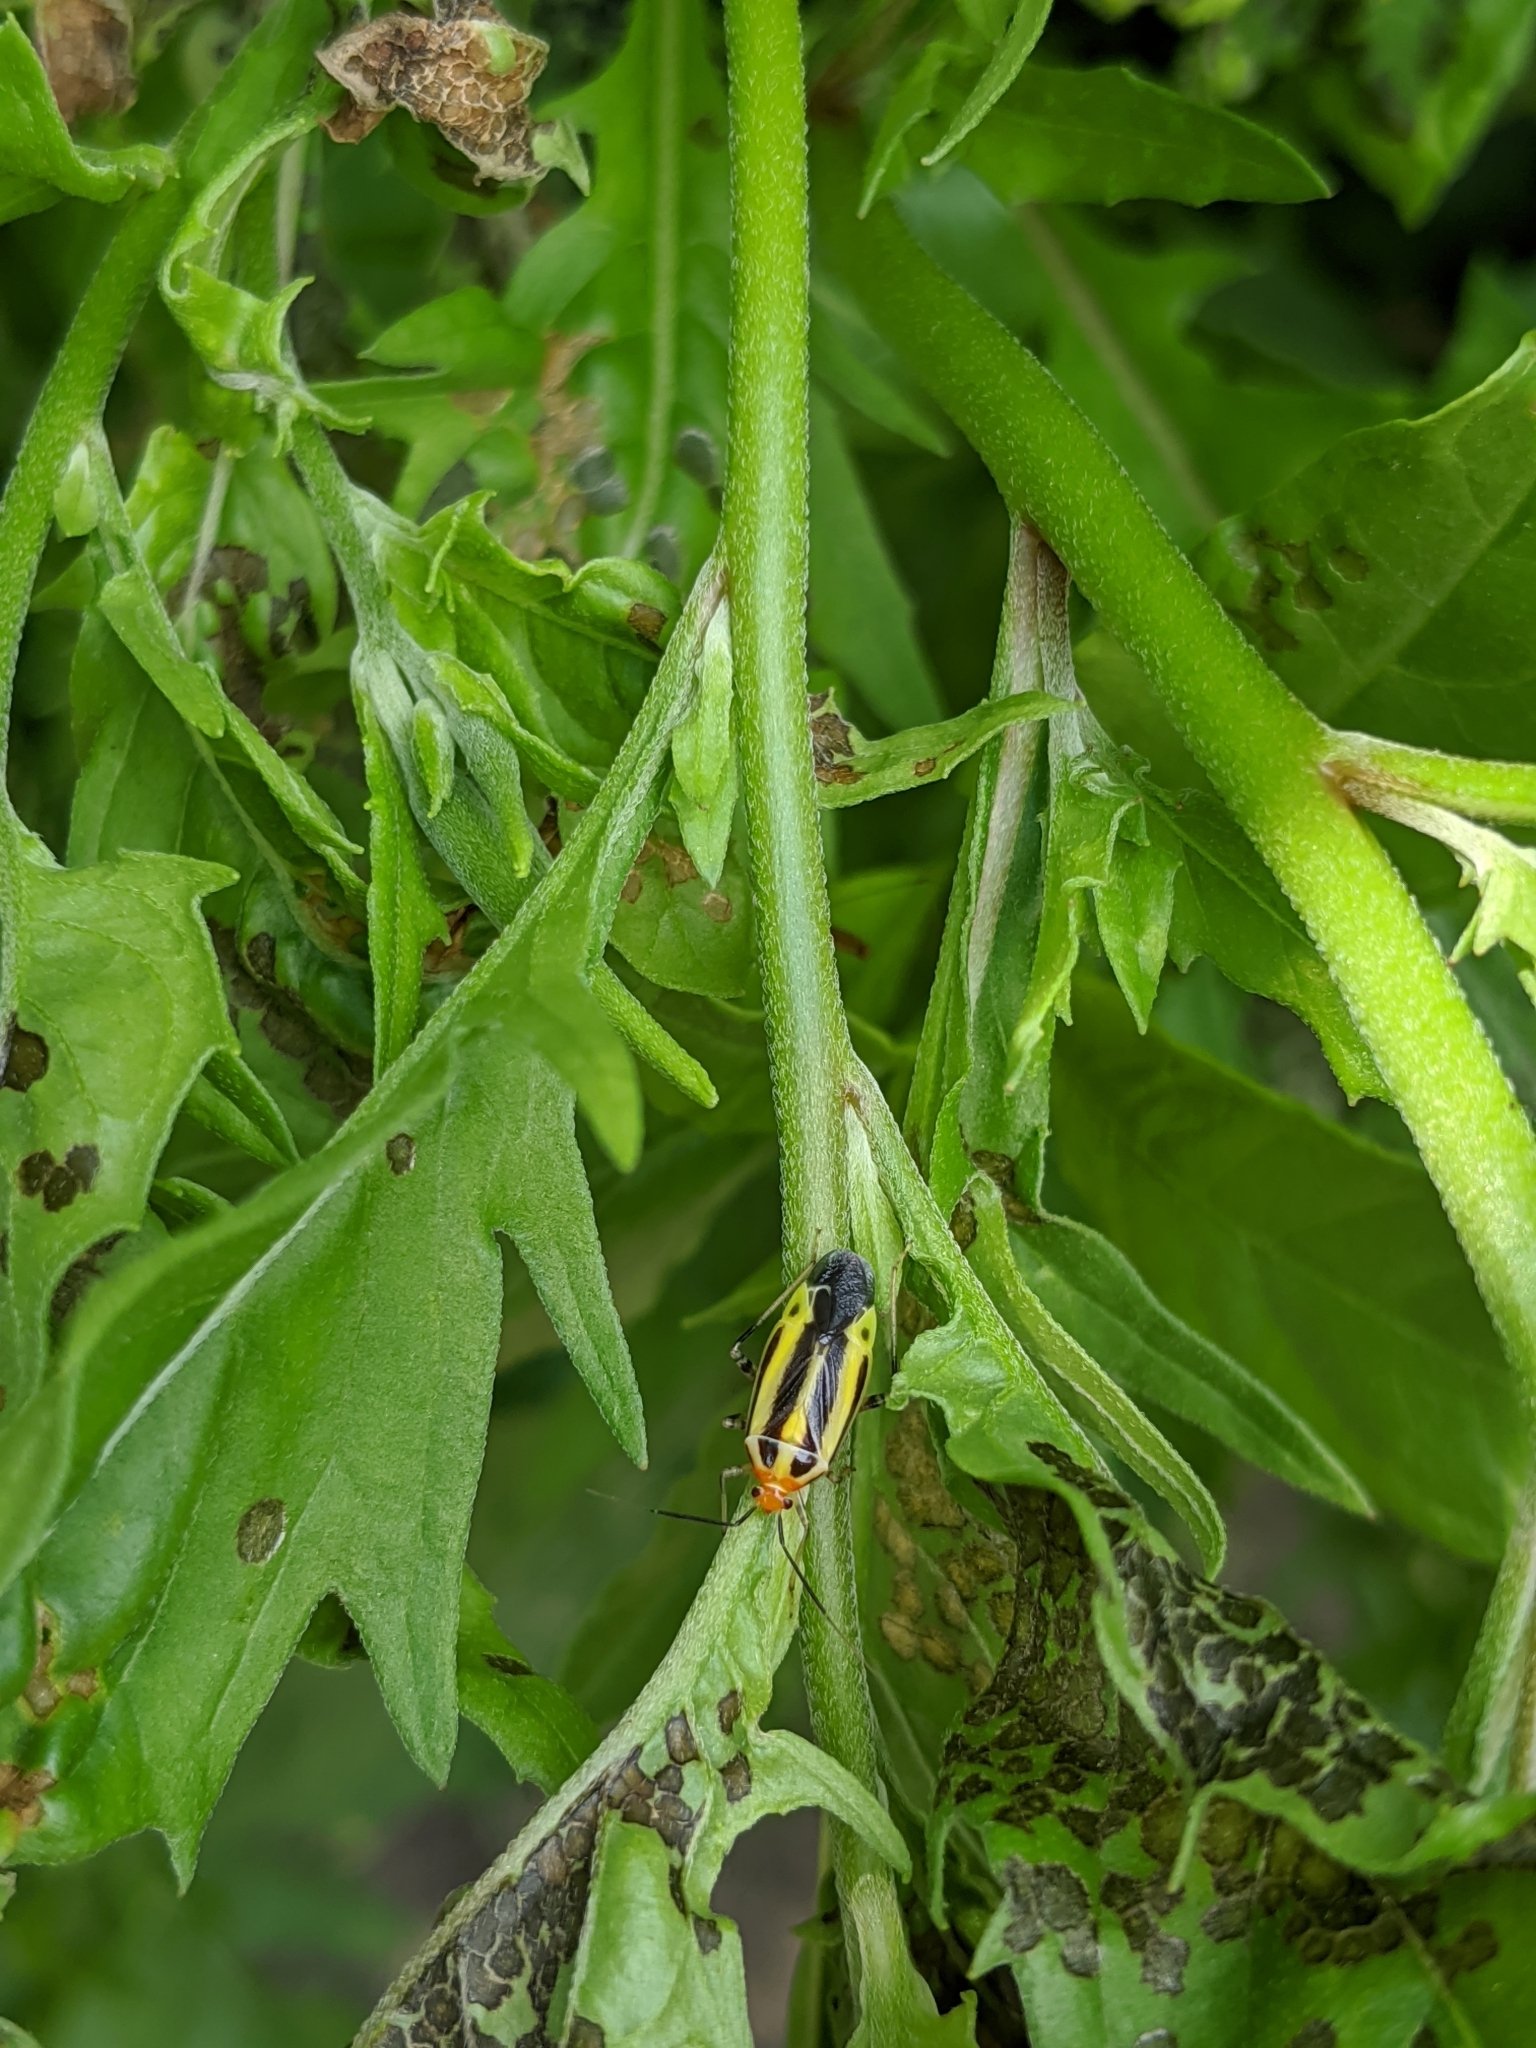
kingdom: Animalia
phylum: Arthropoda
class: Insecta
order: Hemiptera
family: Miridae
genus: Poecilocapsus
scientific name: Poecilocapsus lineatus
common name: Four-lined plant bug
